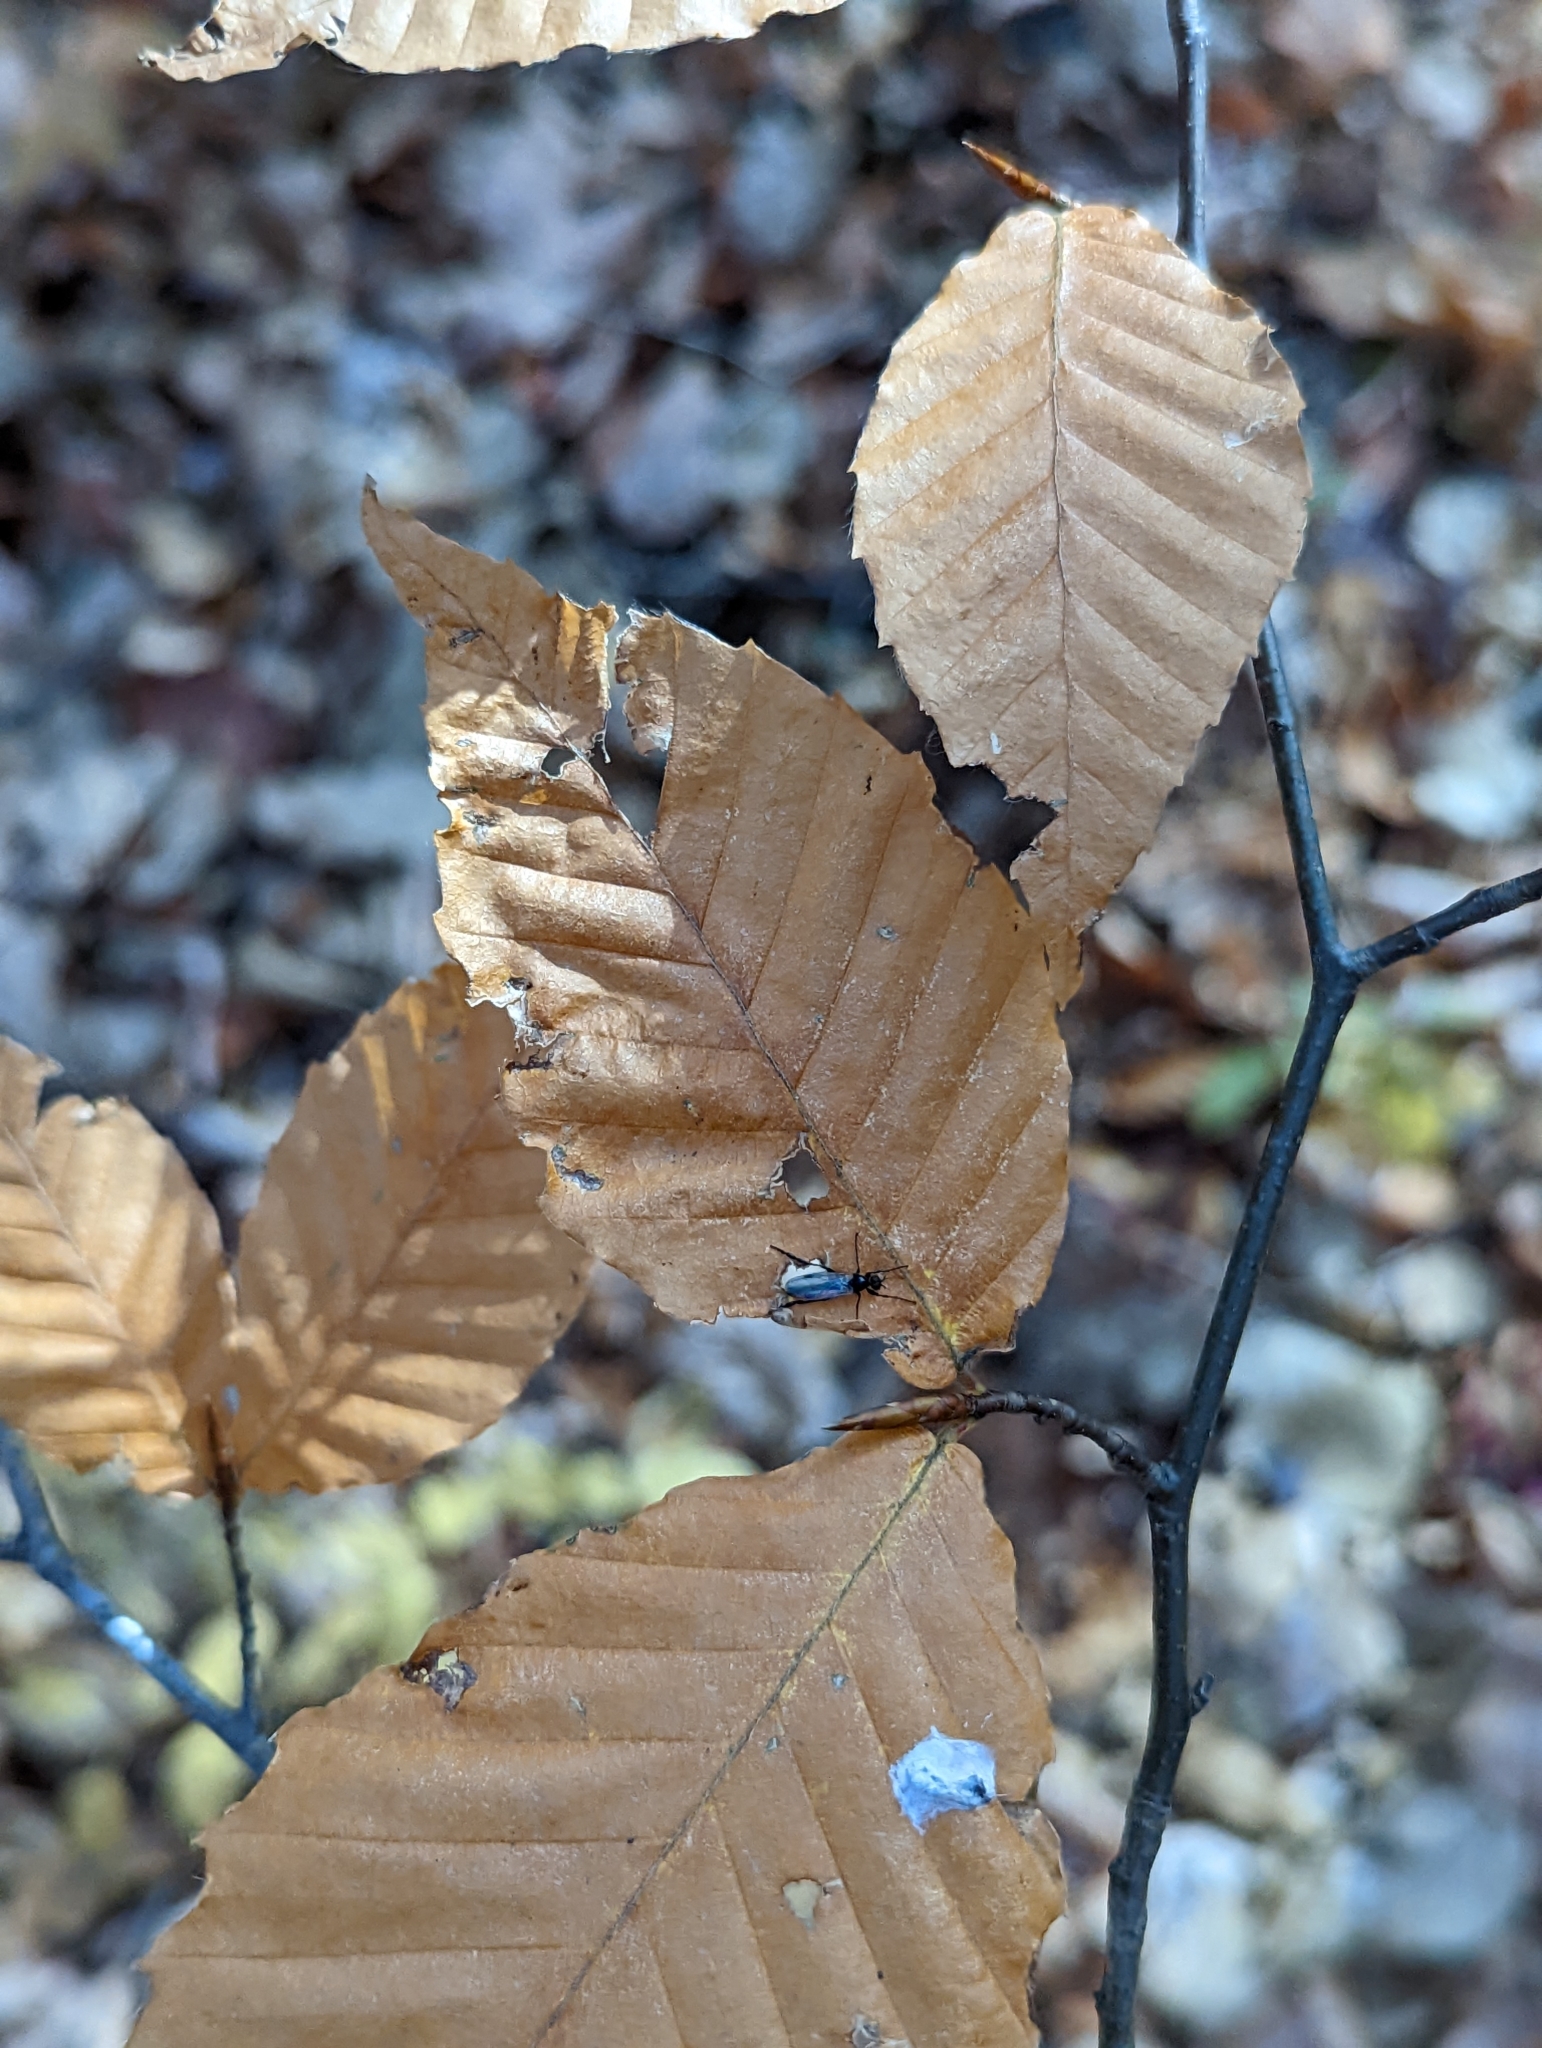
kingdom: Animalia
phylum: Arthropoda
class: Insecta
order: Diptera
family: Bibionidae
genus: Bibio
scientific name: Bibio slossonae
